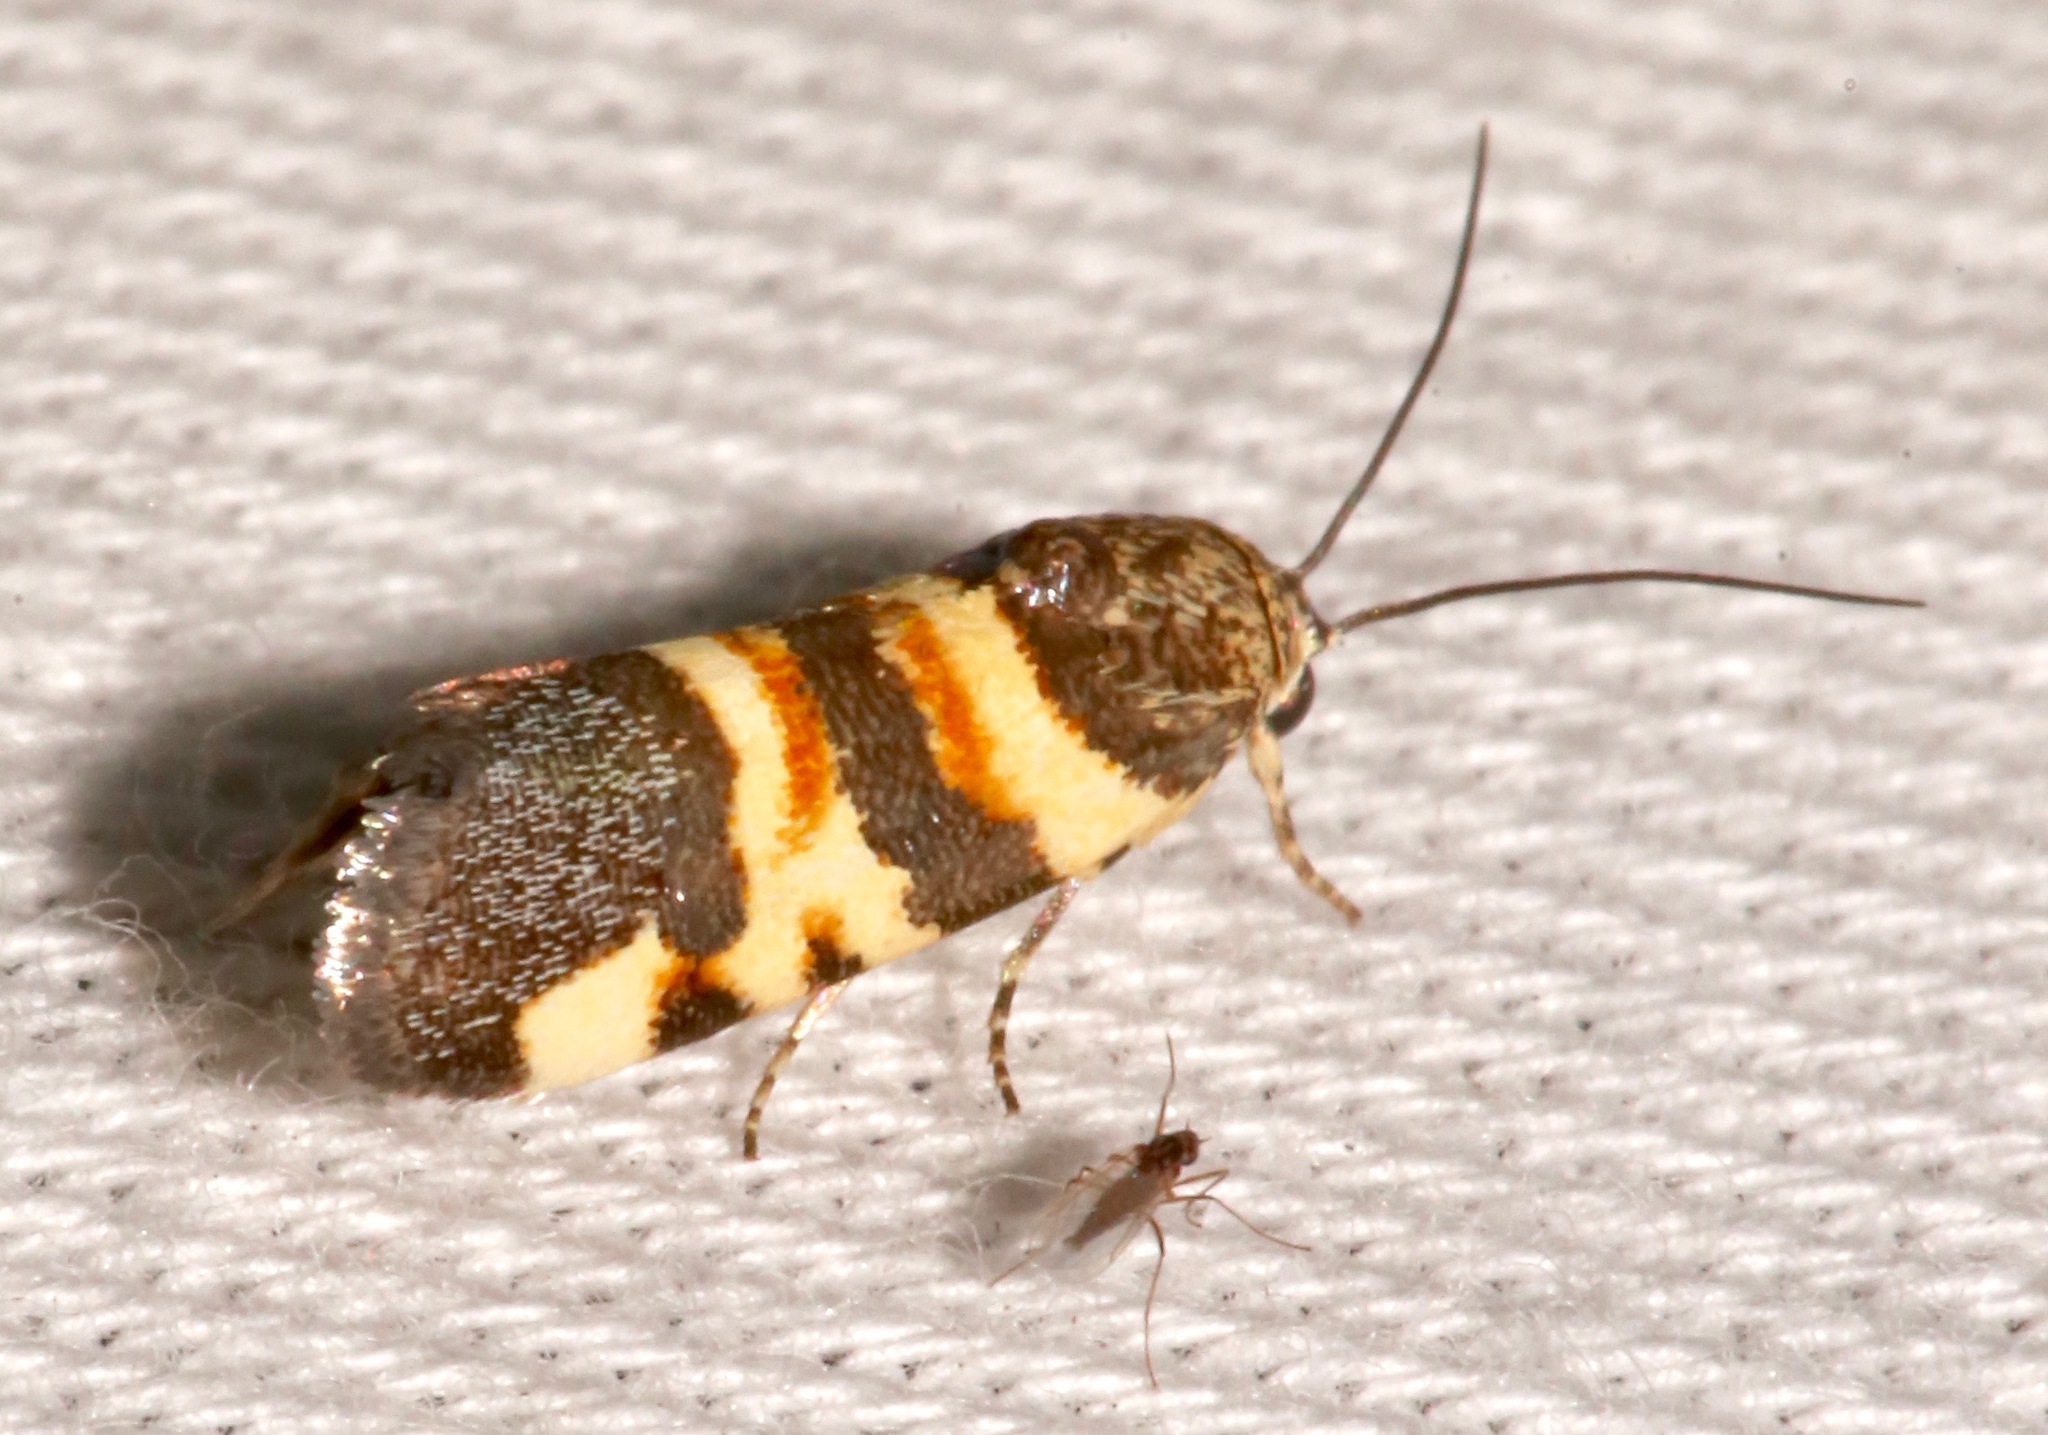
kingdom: Animalia
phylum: Arthropoda
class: Insecta
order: Lepidoptera
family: Noctuidae
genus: Spragueia
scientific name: Spragueia funeralis
